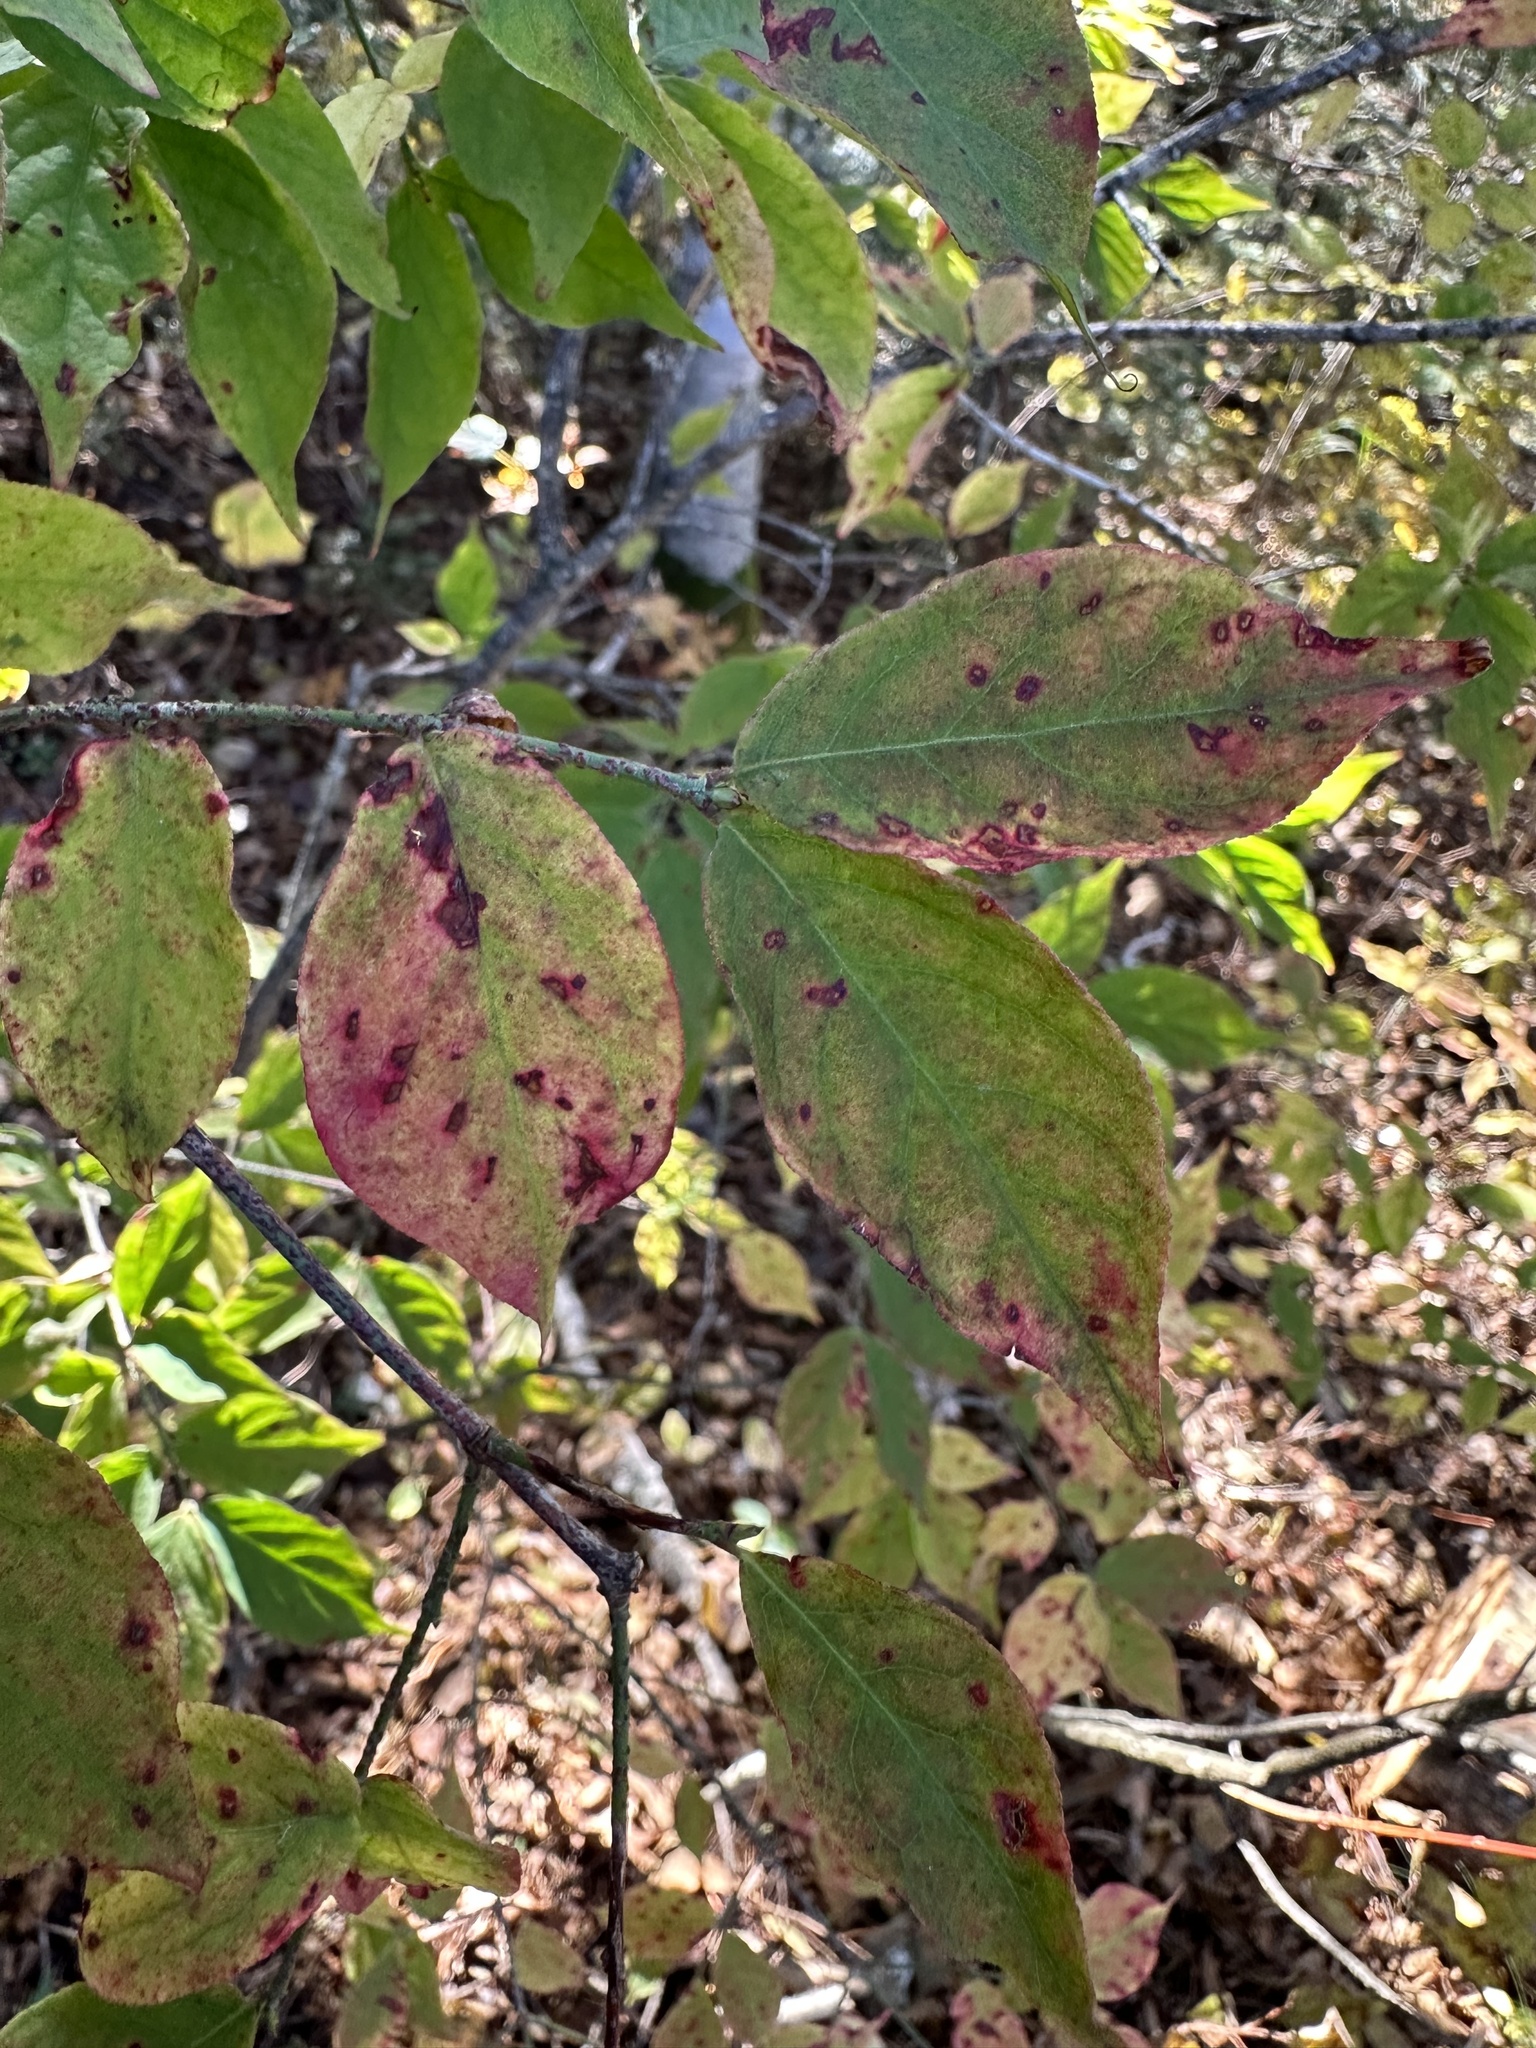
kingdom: Plantae
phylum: Tracheophyta
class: Magnoliopsida
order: Celastrales
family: Celastraceae
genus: Euonymus
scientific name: Euonymus verrucosus
